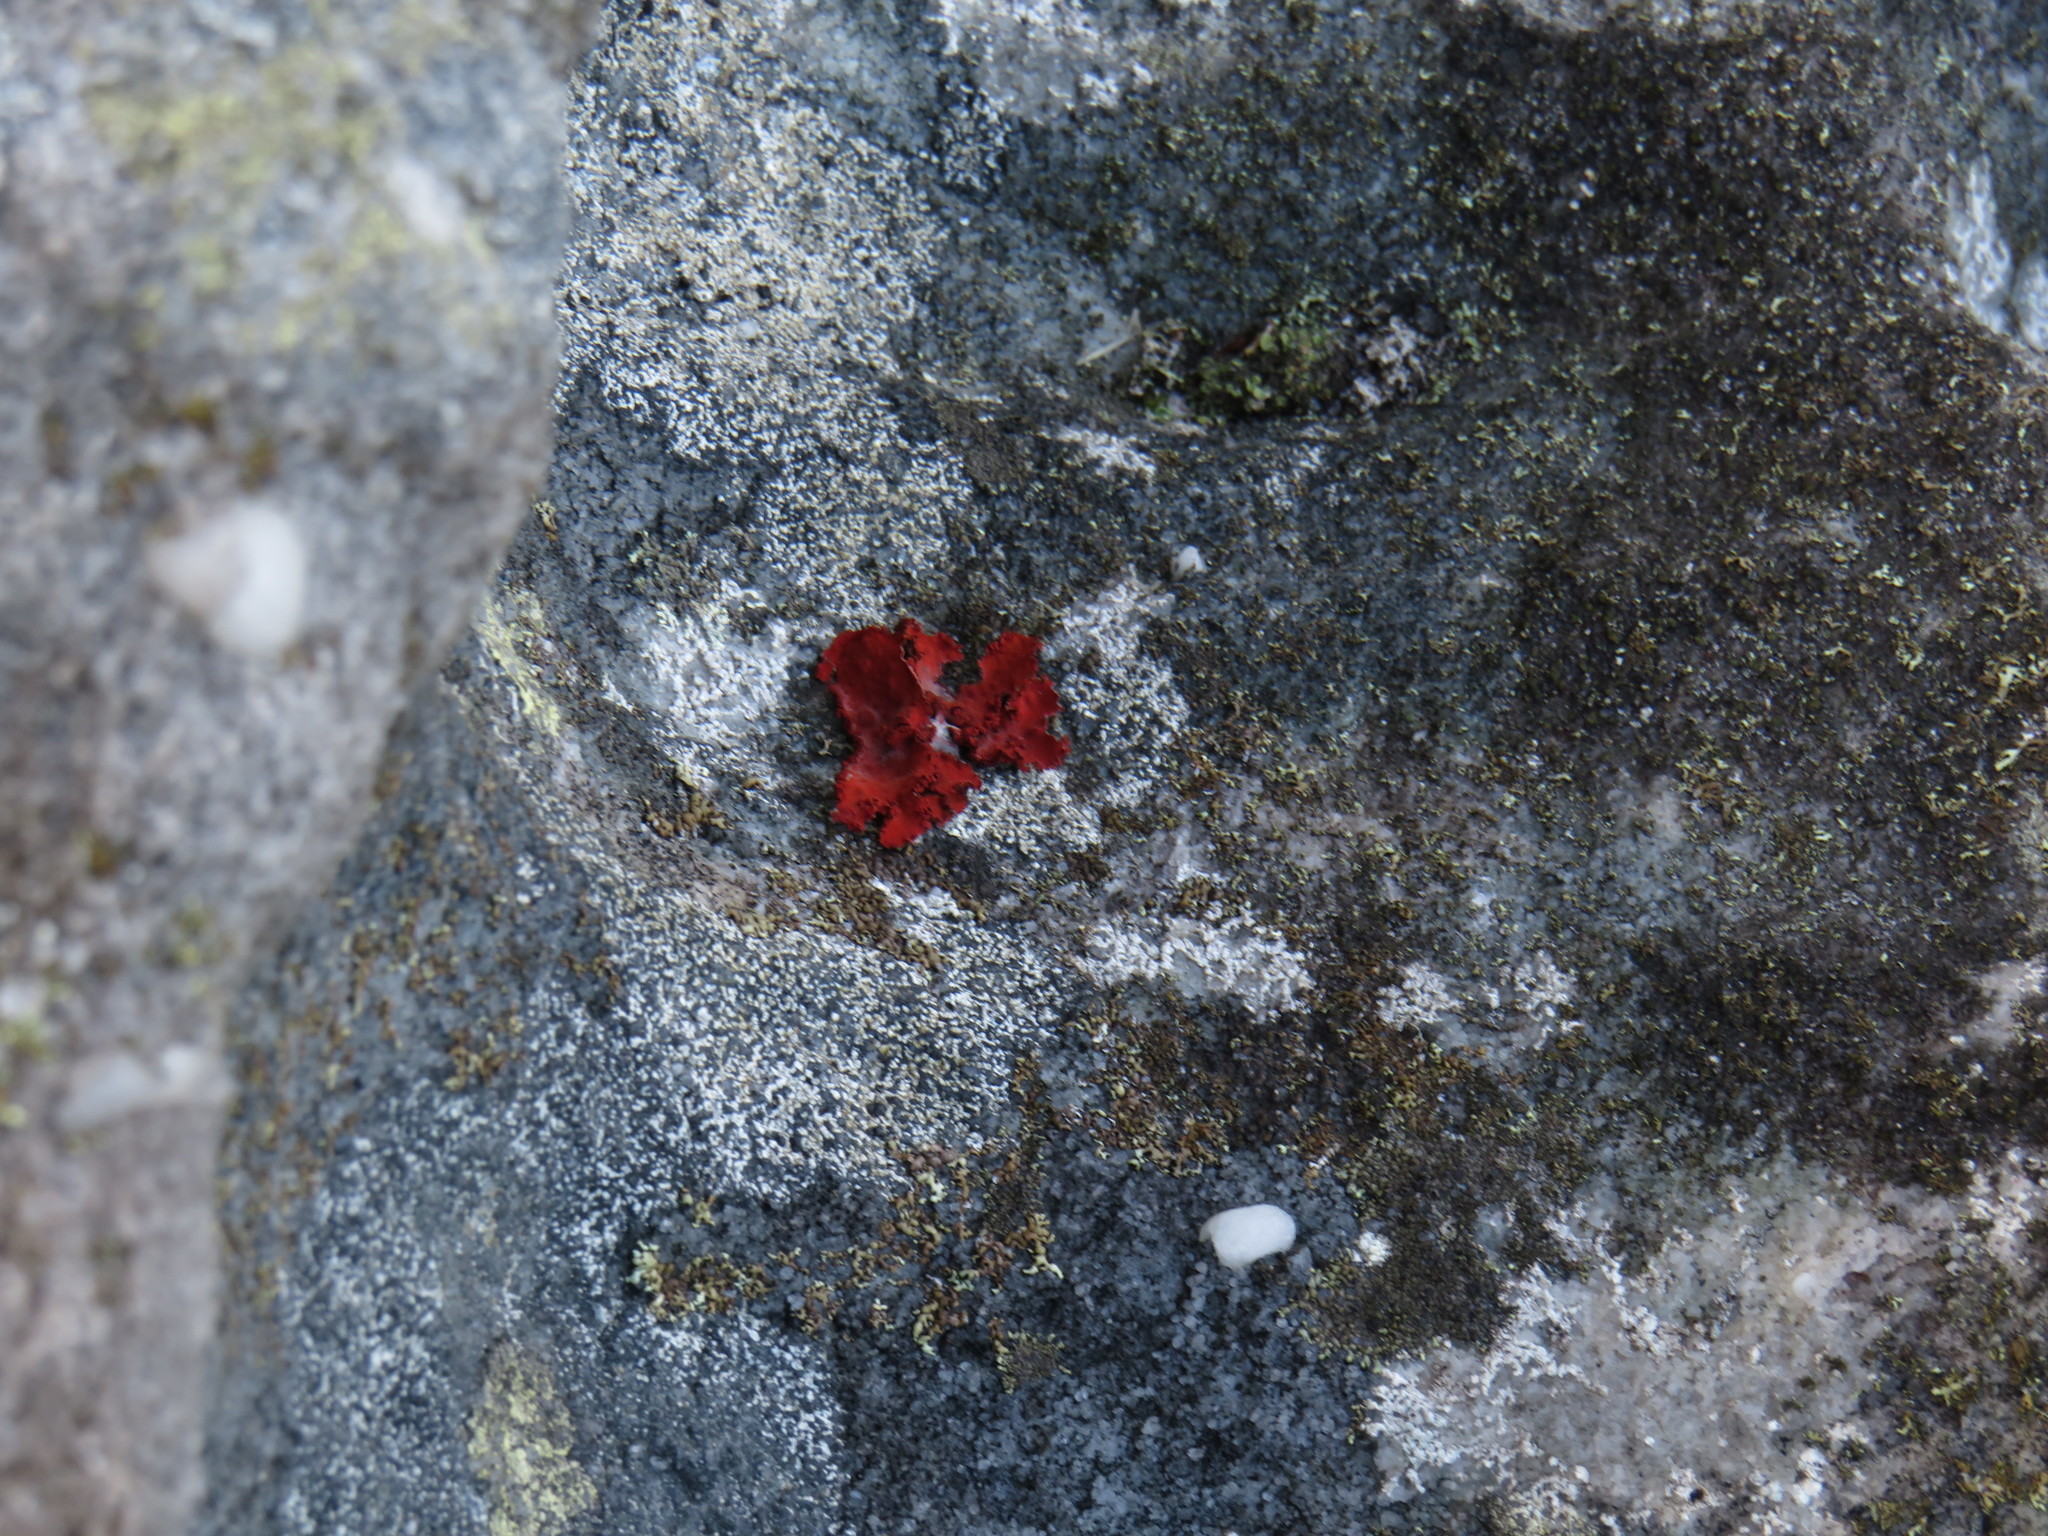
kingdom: Fungi
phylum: Ascomycota
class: Lecanoromycetes
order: Umbilicariales
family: Umbilicariaceae
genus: Lasallia
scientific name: Lasallia rubiginosa
